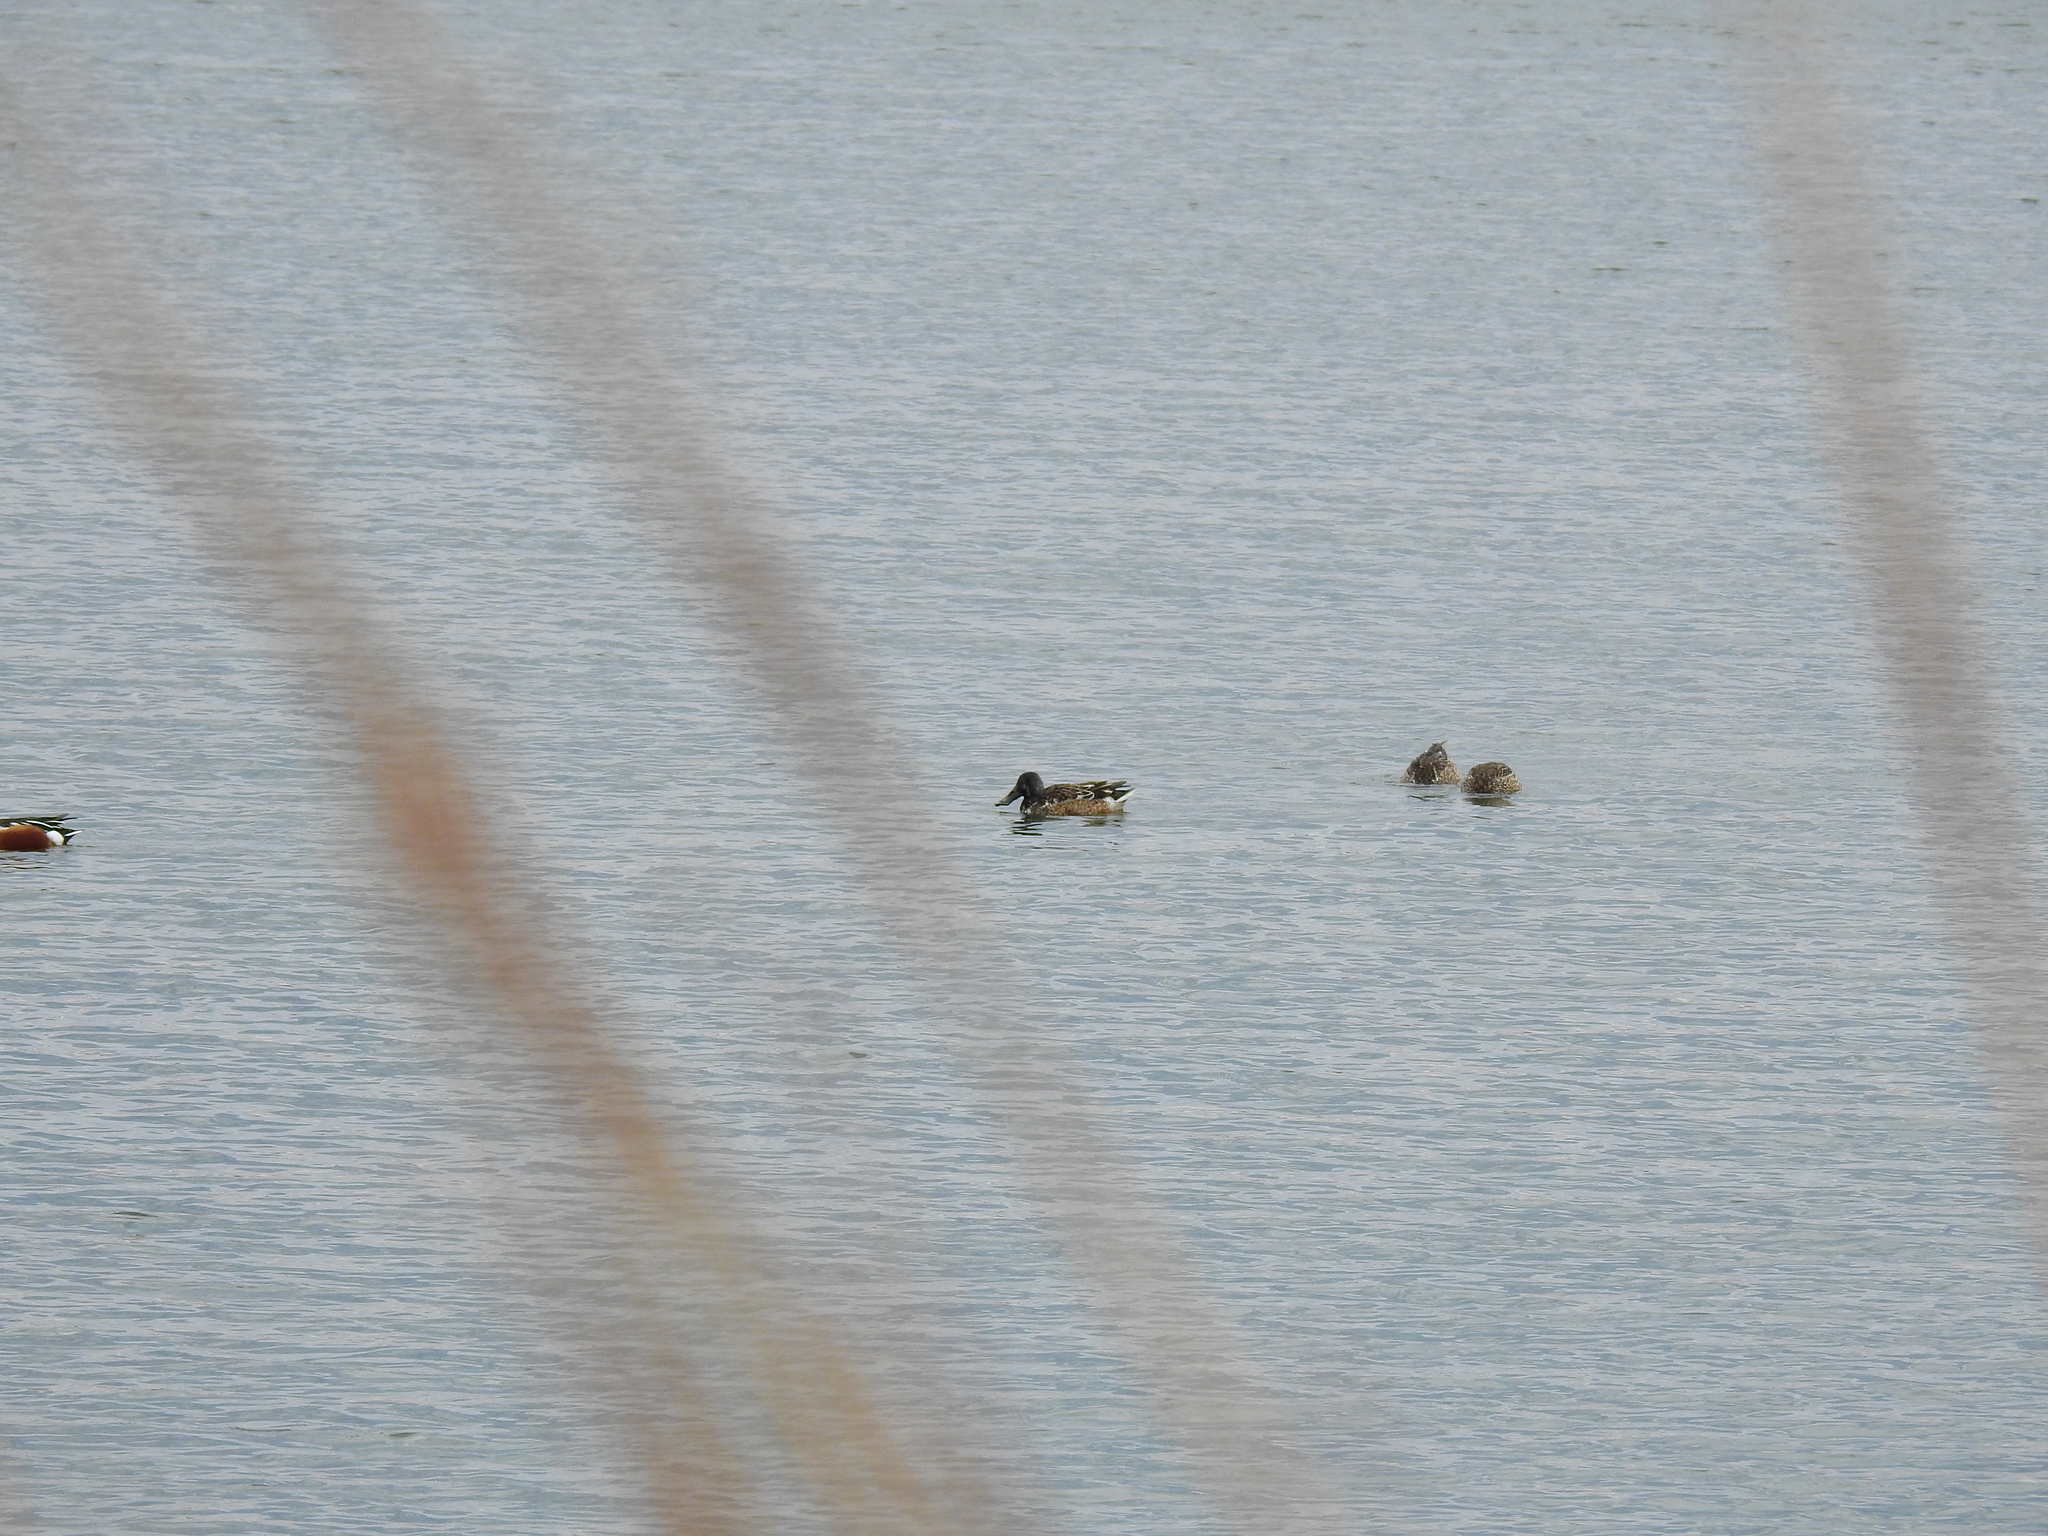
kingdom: Animalia
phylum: Chordata
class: Aves
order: Anseriformes
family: Anatidae
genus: Spatula
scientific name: Spatula clypeata
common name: Northern shoveler
